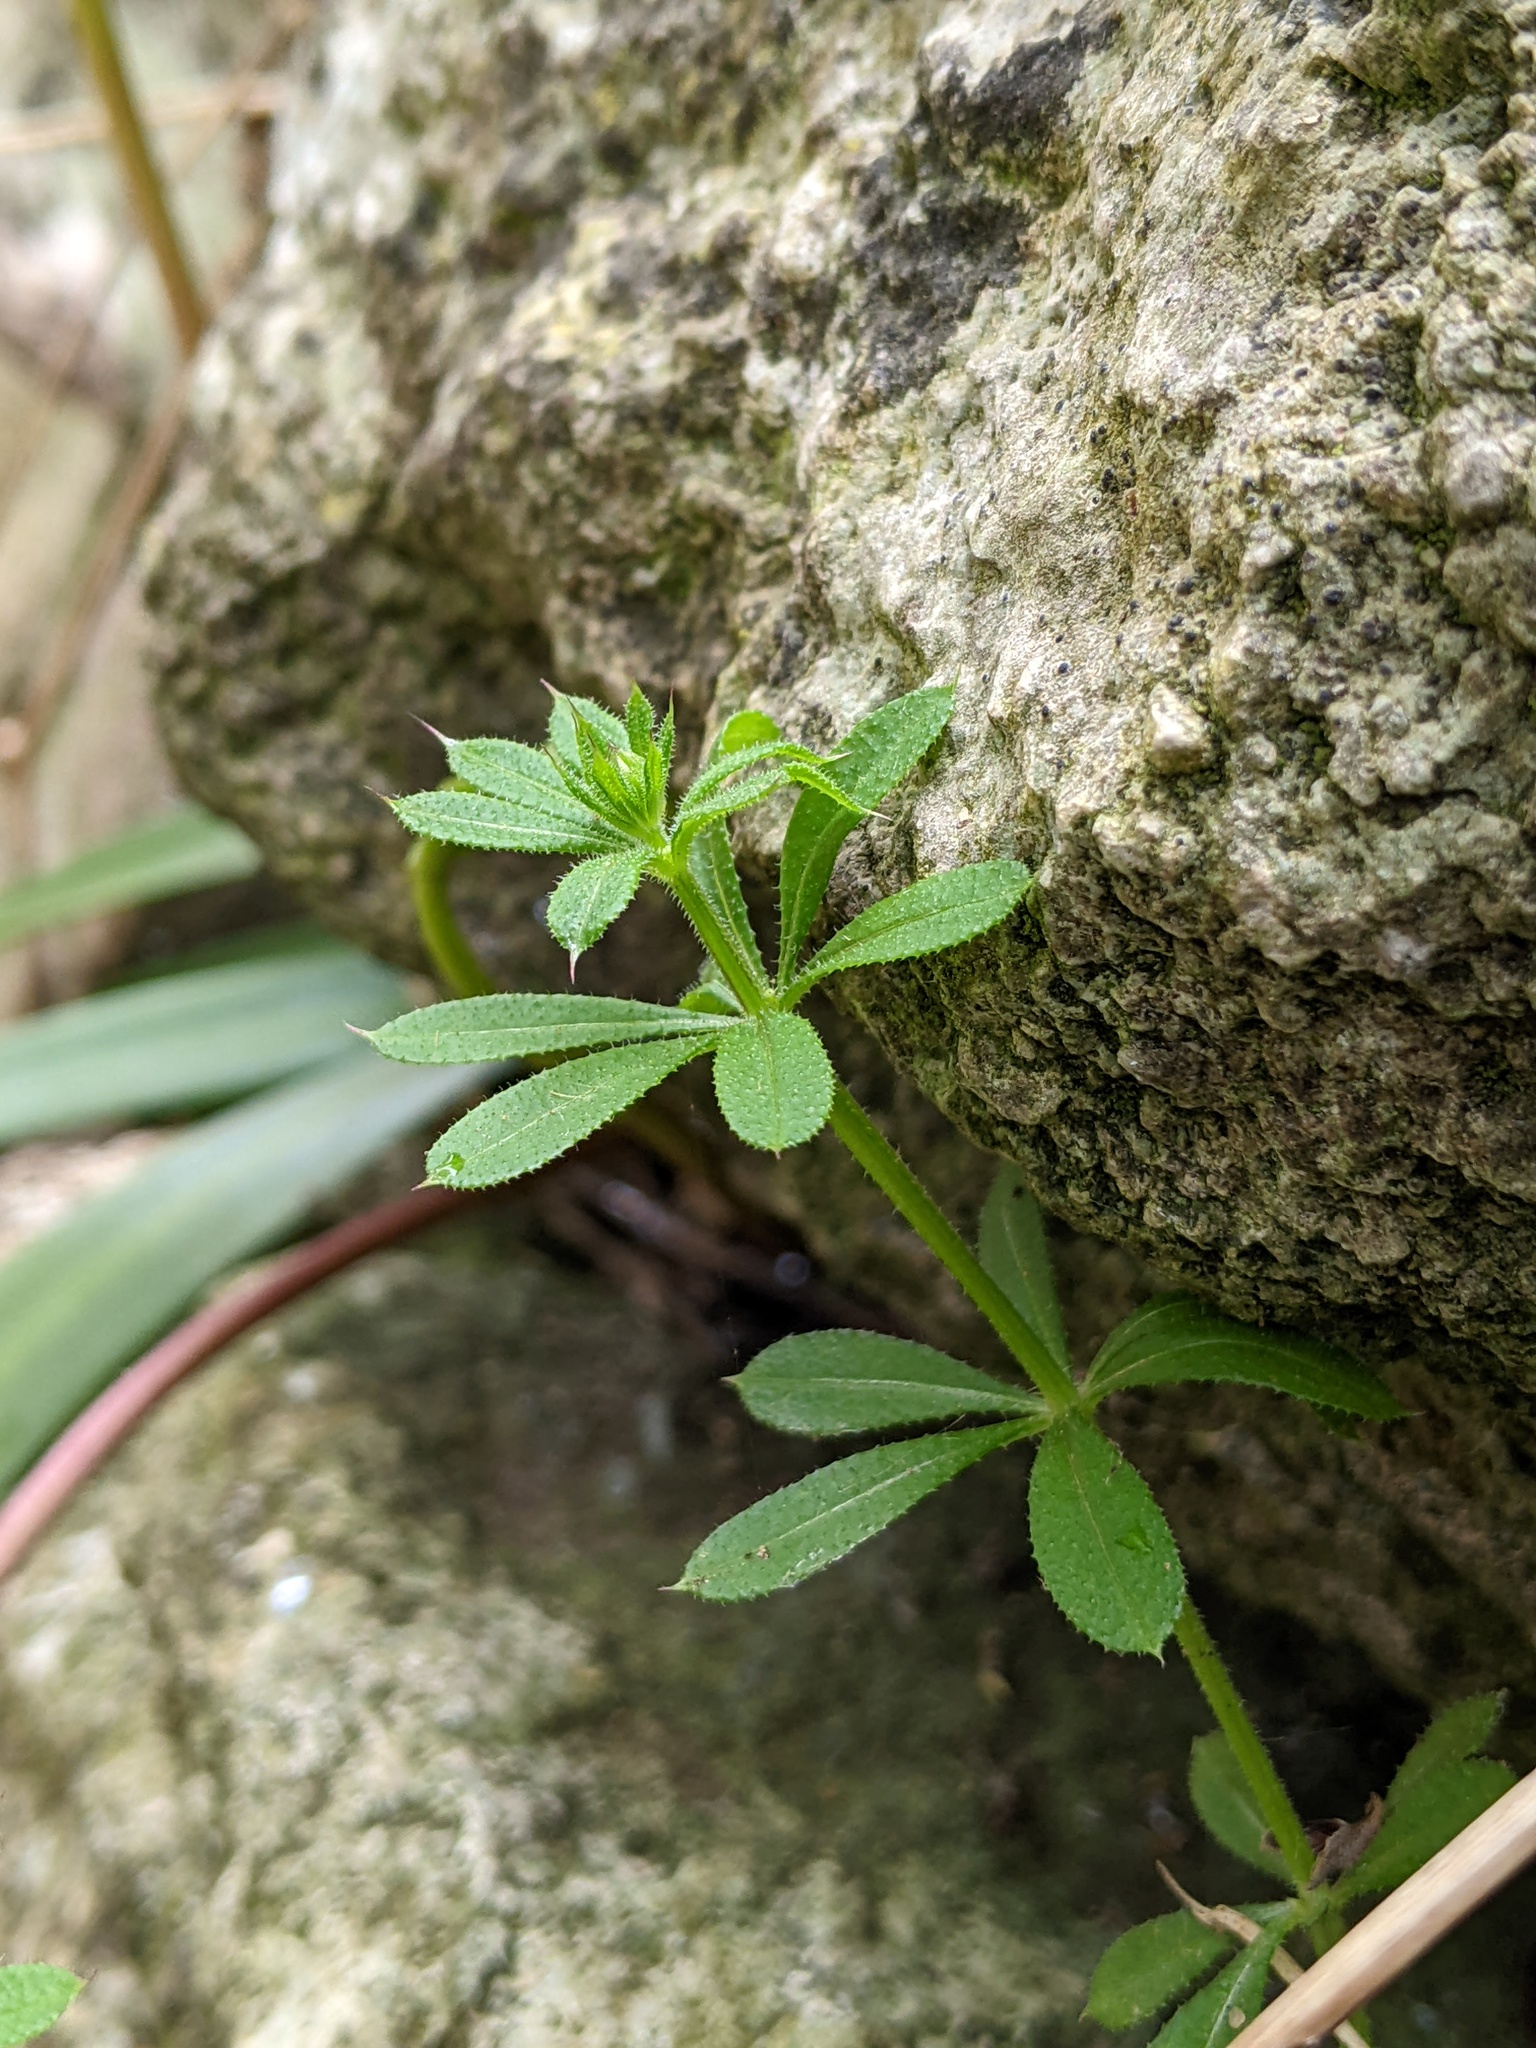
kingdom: Plantae
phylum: Tracheophyta
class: Magnoliopsida
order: Gentianales
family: Rubiaceae
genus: Galium
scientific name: Galium aparine
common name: Cleavers
